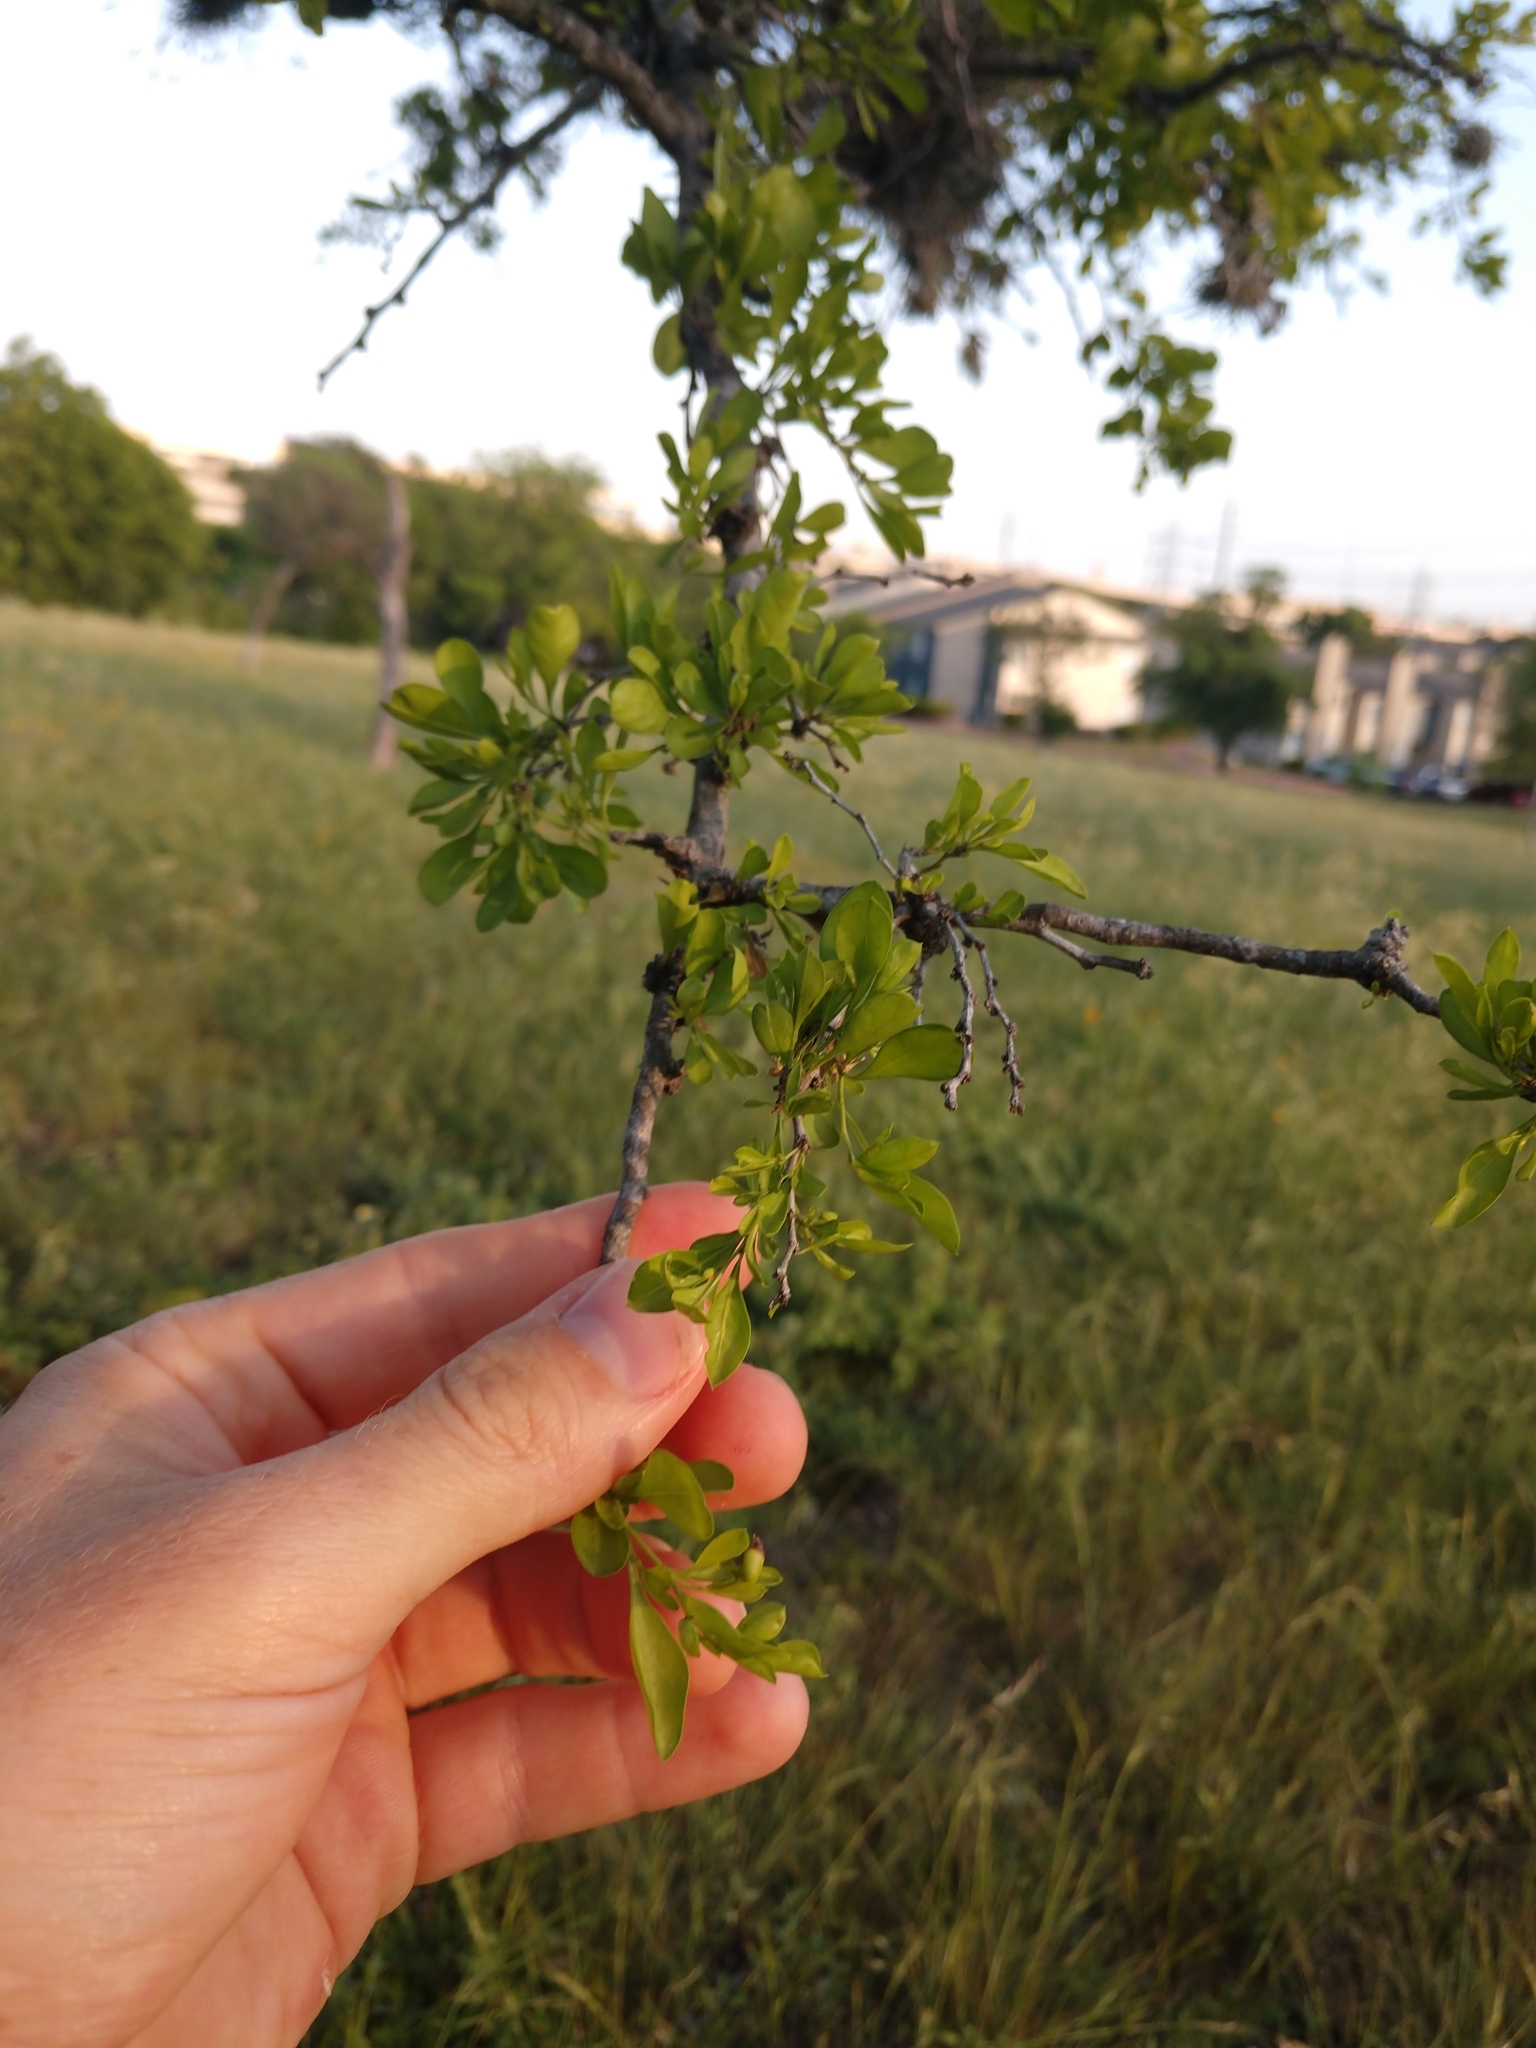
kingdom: Plantae
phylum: Tracheophyta
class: Magnoliopsida
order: Rosales
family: Rhamnaceae
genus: Condalia
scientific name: Condalia hookeri
